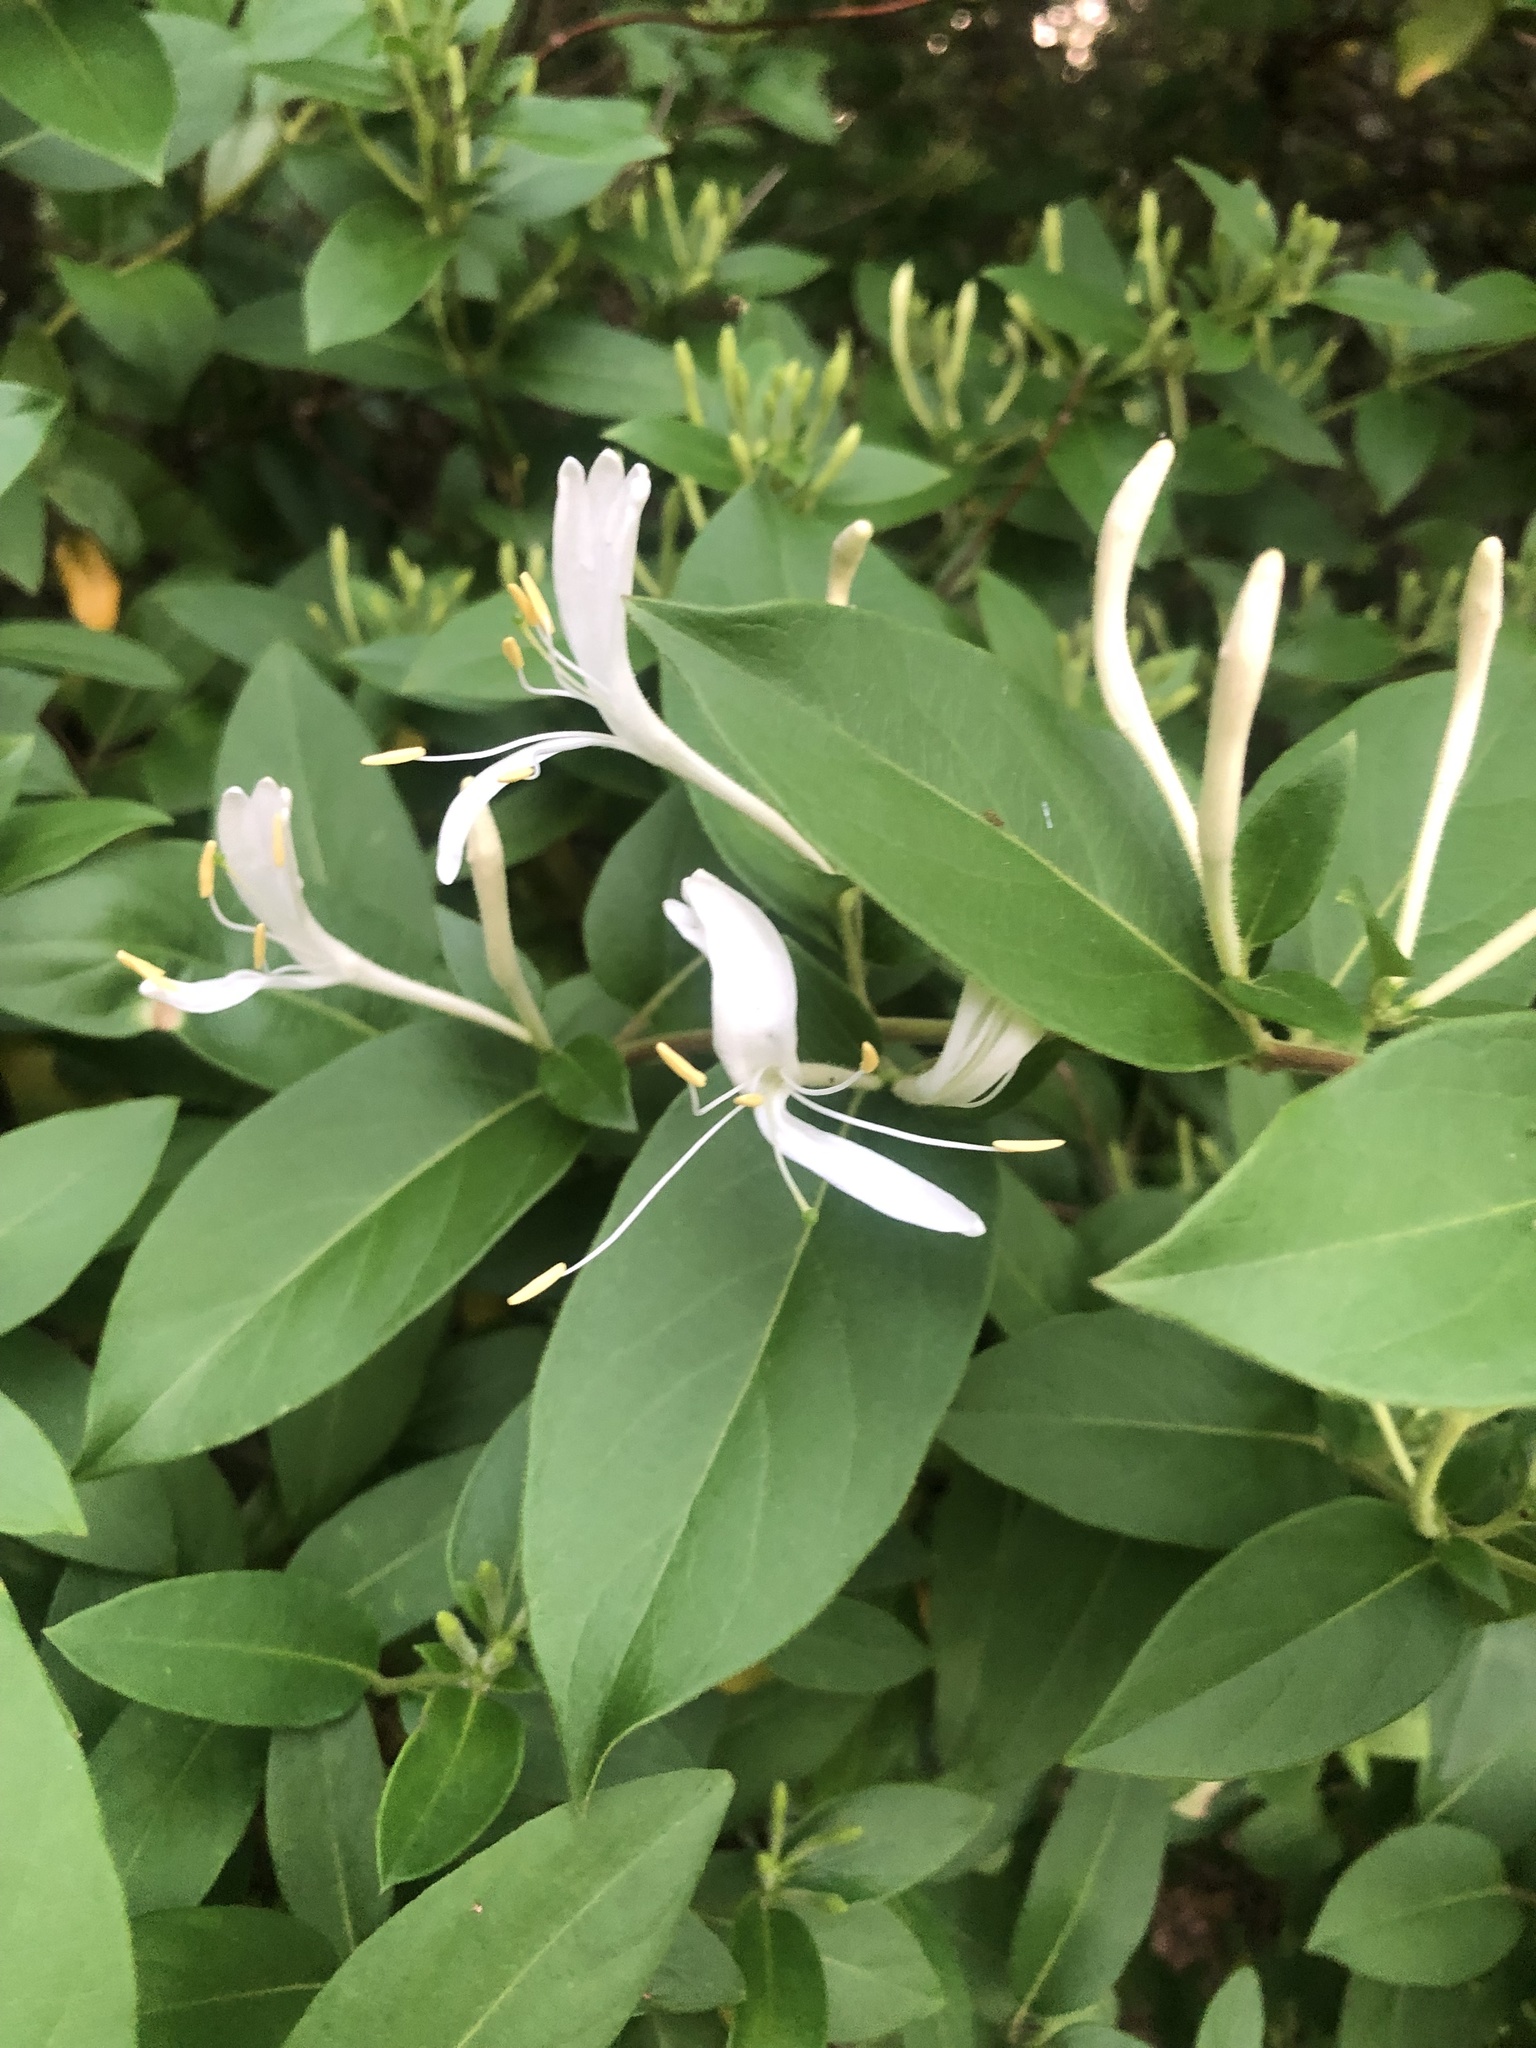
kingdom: Plantae
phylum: Tracheophyta
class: Magnoliopsida
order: Dipsacales
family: Caprifoliaceae
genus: Lonicera
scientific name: Lonicera japonica
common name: Japanese honeysuckle
